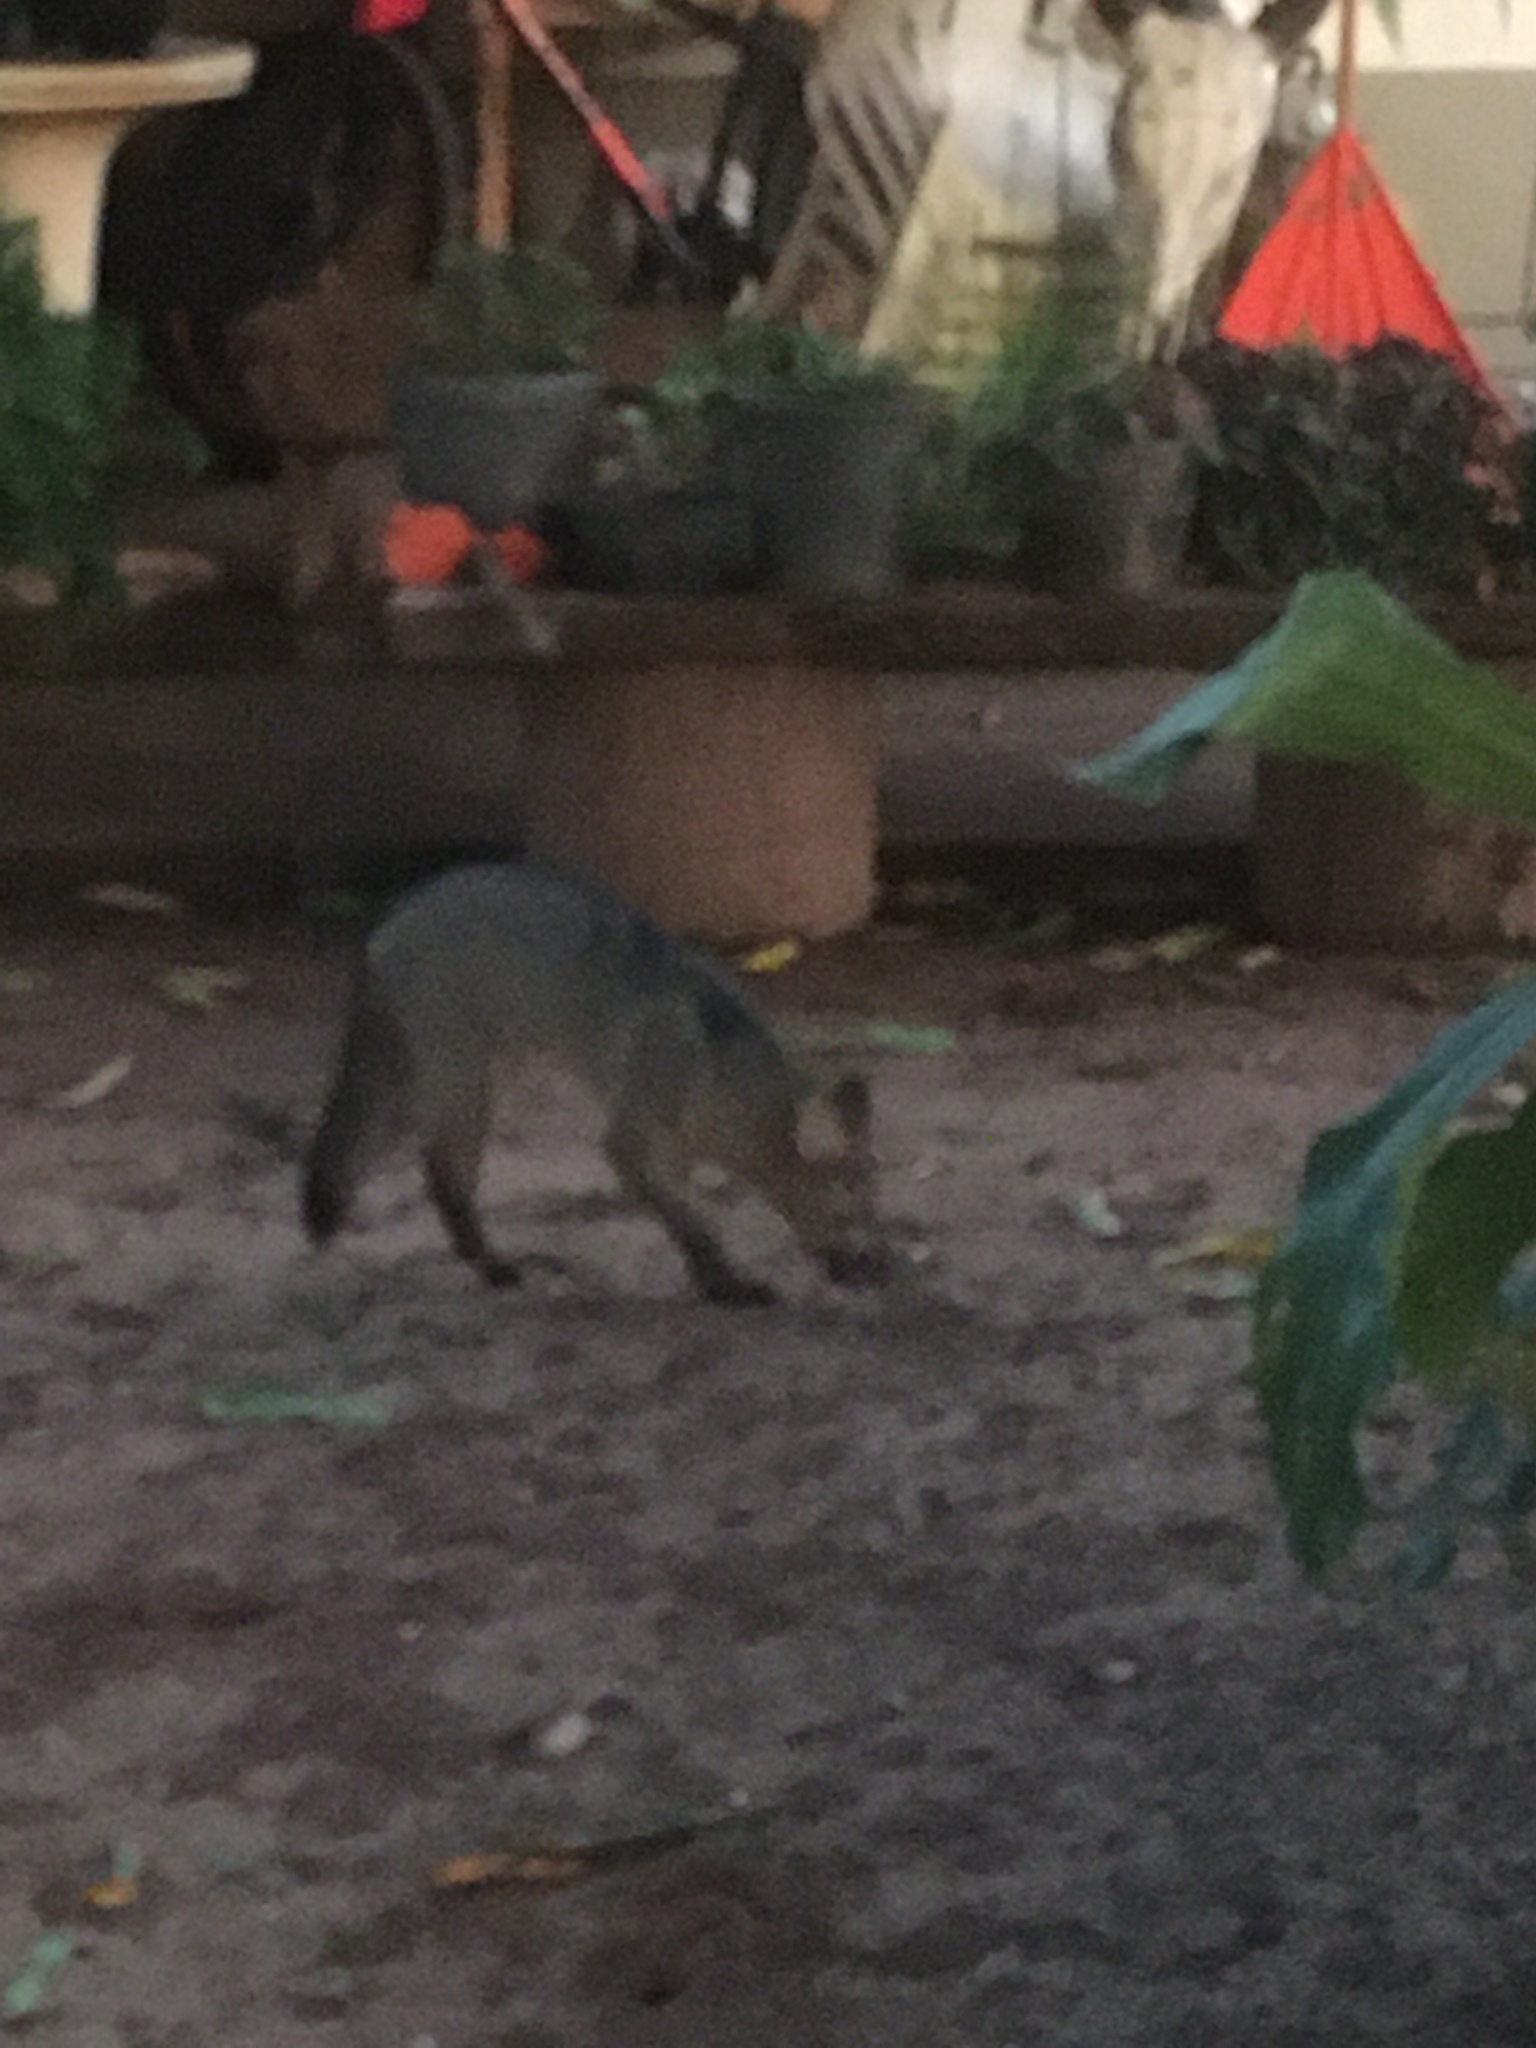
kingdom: Animalia
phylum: Chordata
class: Mammalia
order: Carnivora
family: Canidae
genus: Cerdocyon
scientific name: Cerdocyon thous
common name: Crab-eating fox
